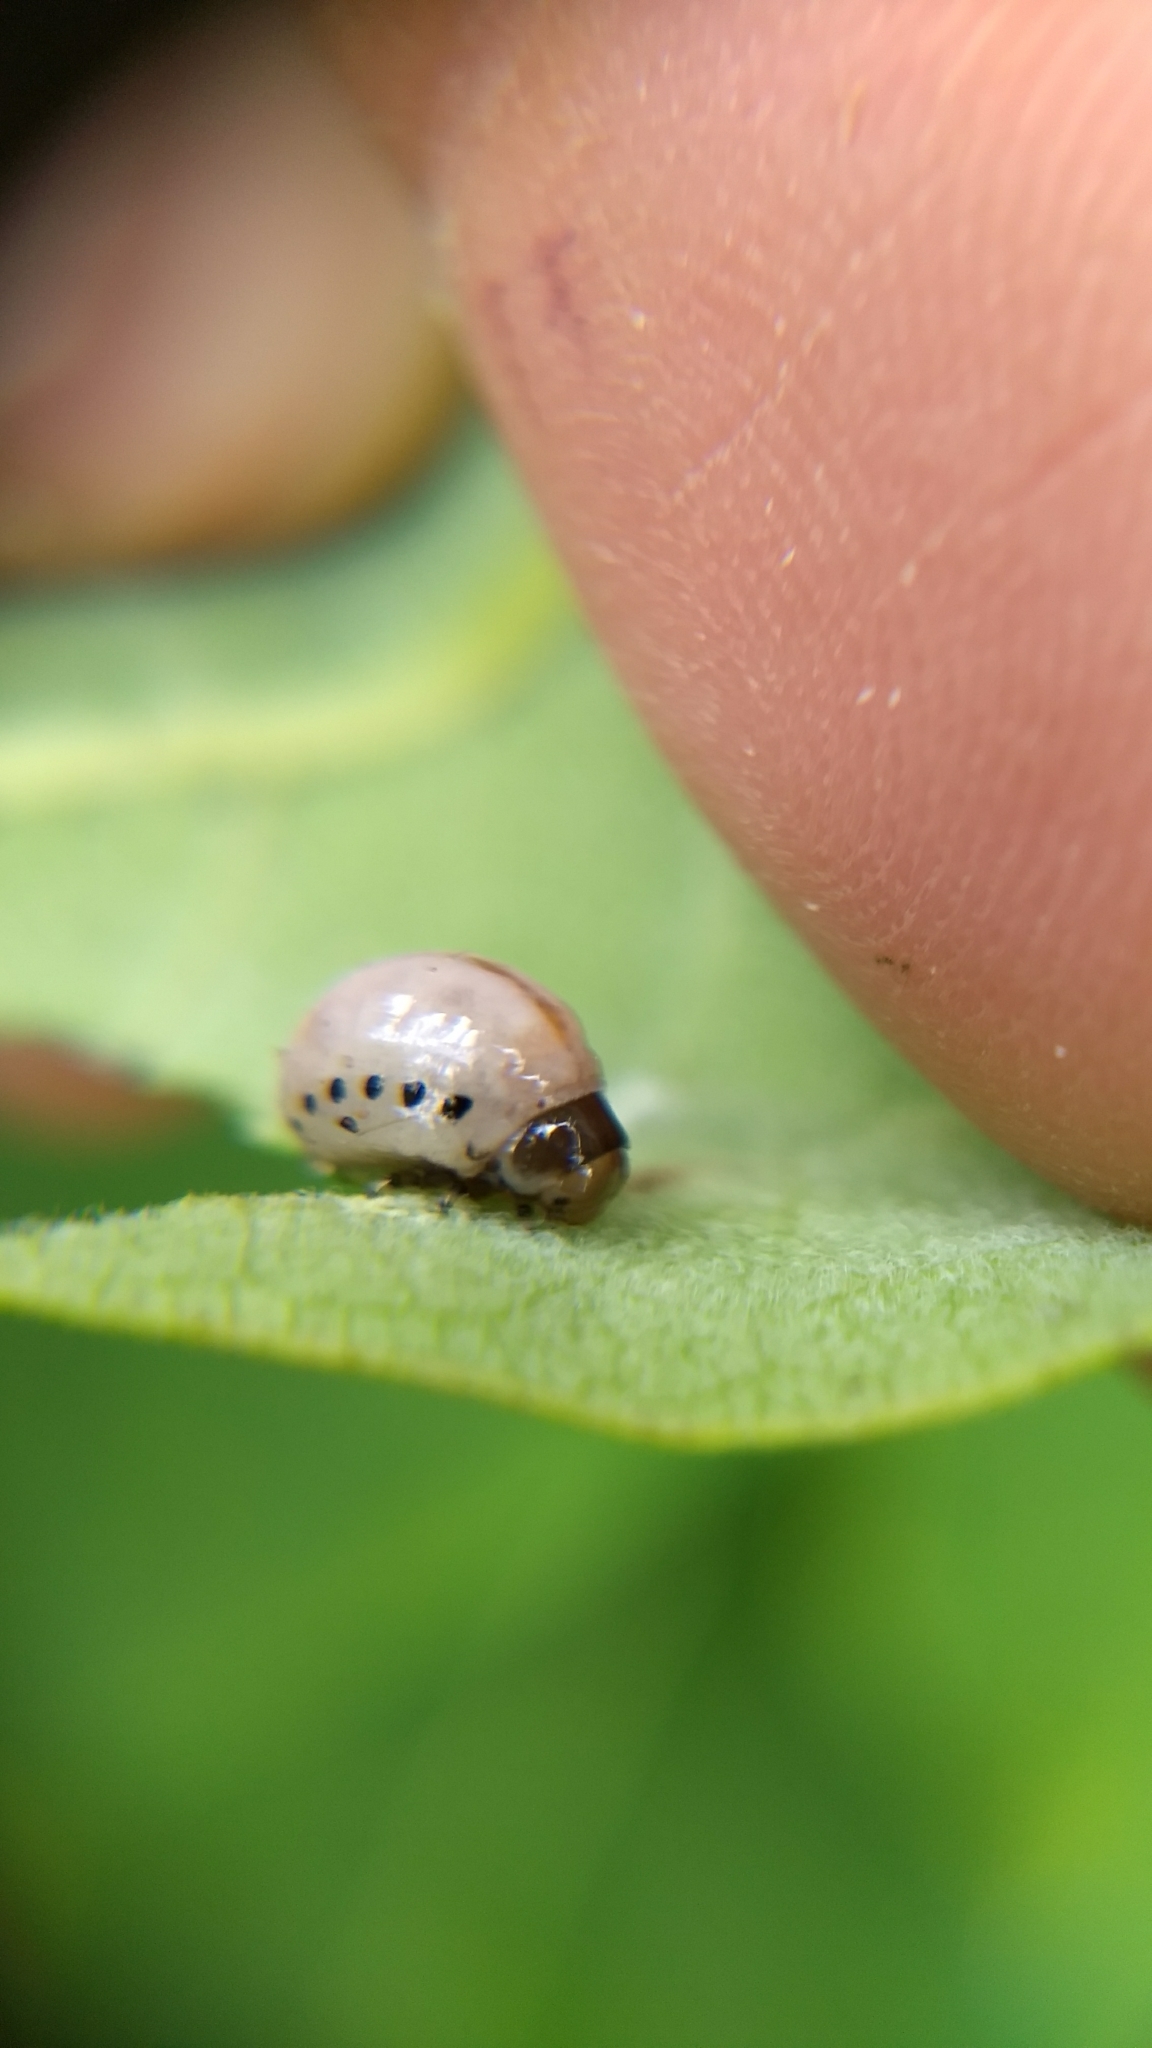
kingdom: Animalia
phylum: Arthropoda
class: Insecta
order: Coleoptera
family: Chrysomelidae
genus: Labidomera
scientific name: Labidomera clivicollis
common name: Swamp milkweed leaf beetle
